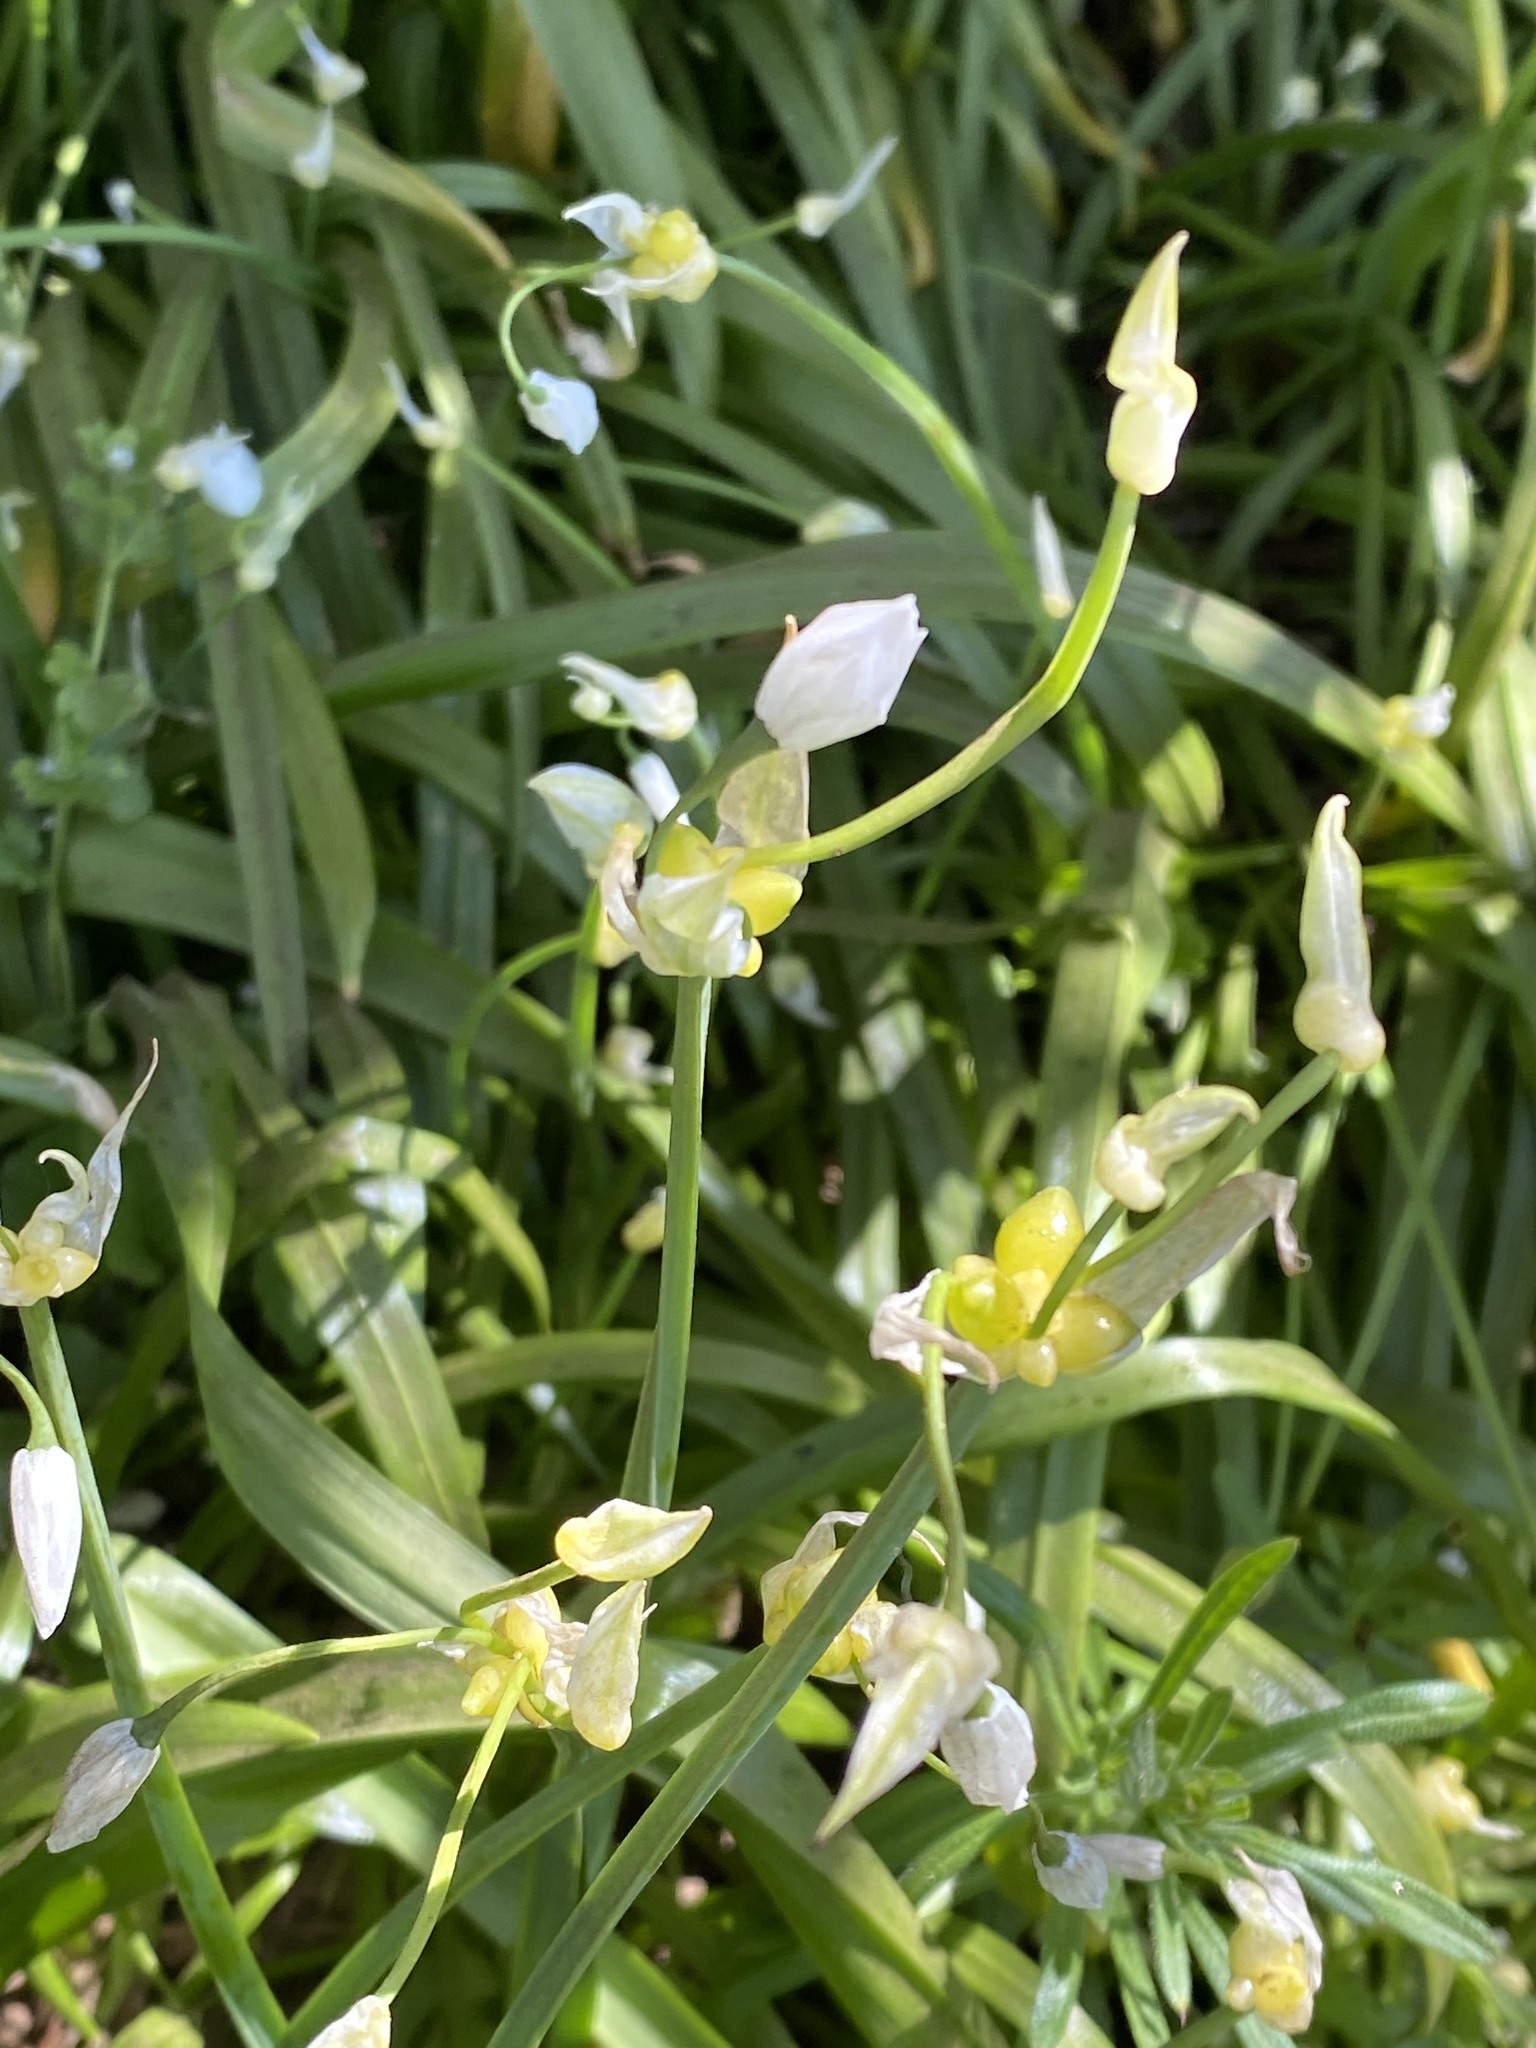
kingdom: Plantae
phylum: Tracheophyta
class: Liliopsida
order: Asparagales
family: Amaryllidaceae
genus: Allium
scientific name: Allium paradoxum
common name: Few-flowered garlic
